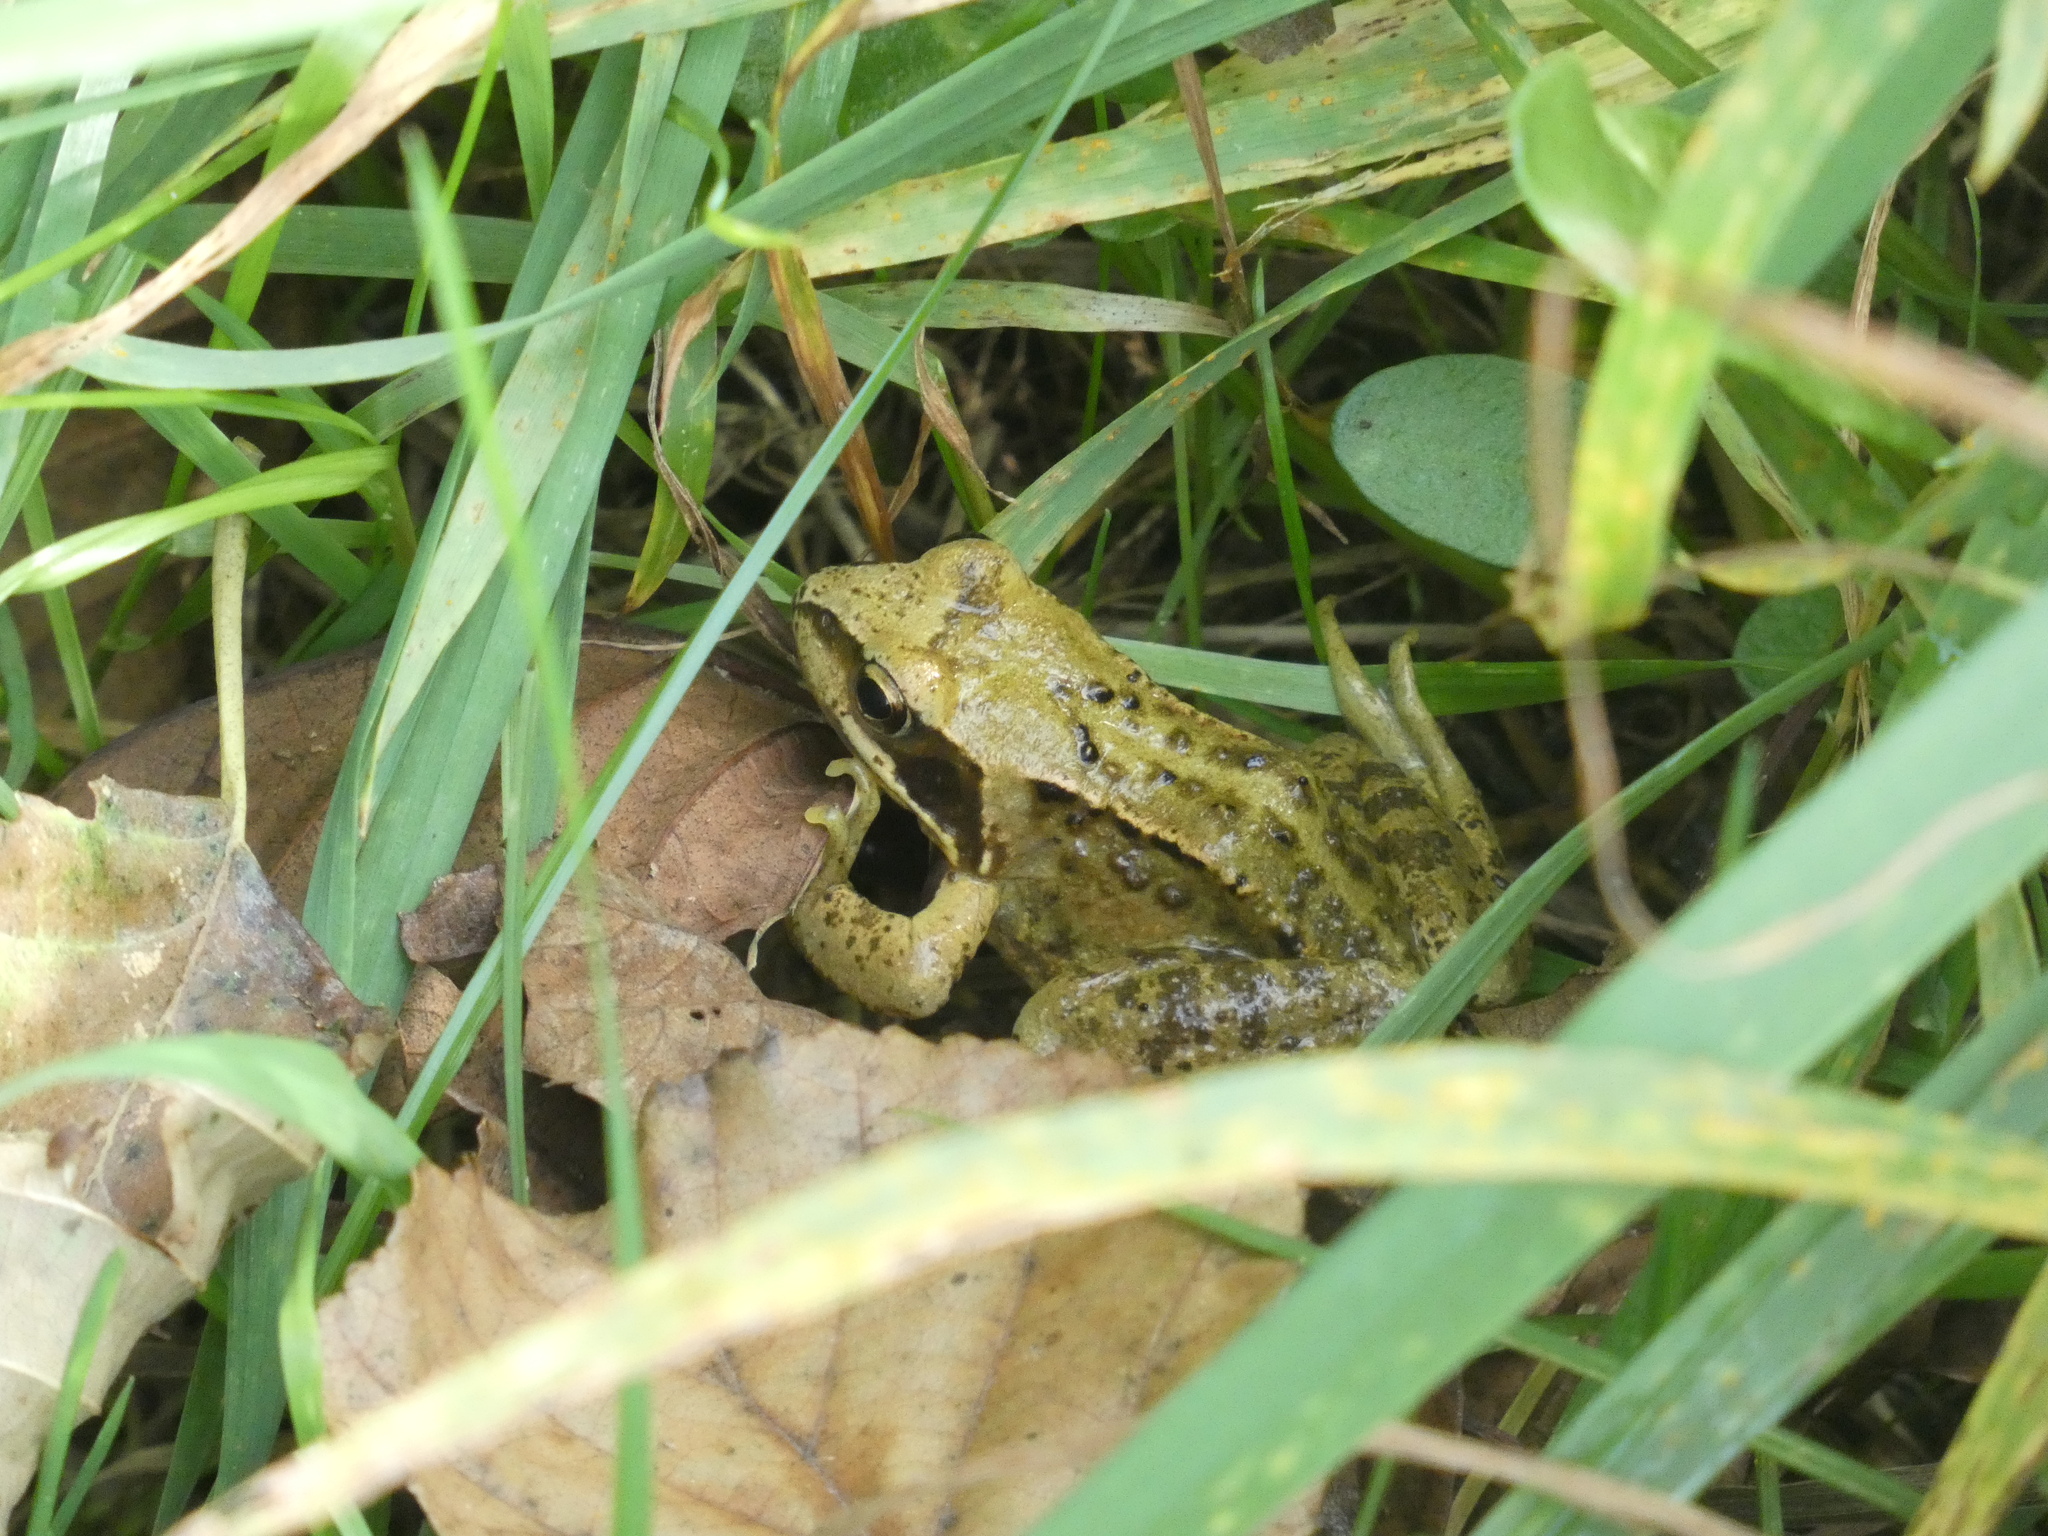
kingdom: Animalia
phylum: Chordata
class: Amphibia
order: Anura
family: Ranidae
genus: Rana
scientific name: Rana temporaria
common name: Common frog
